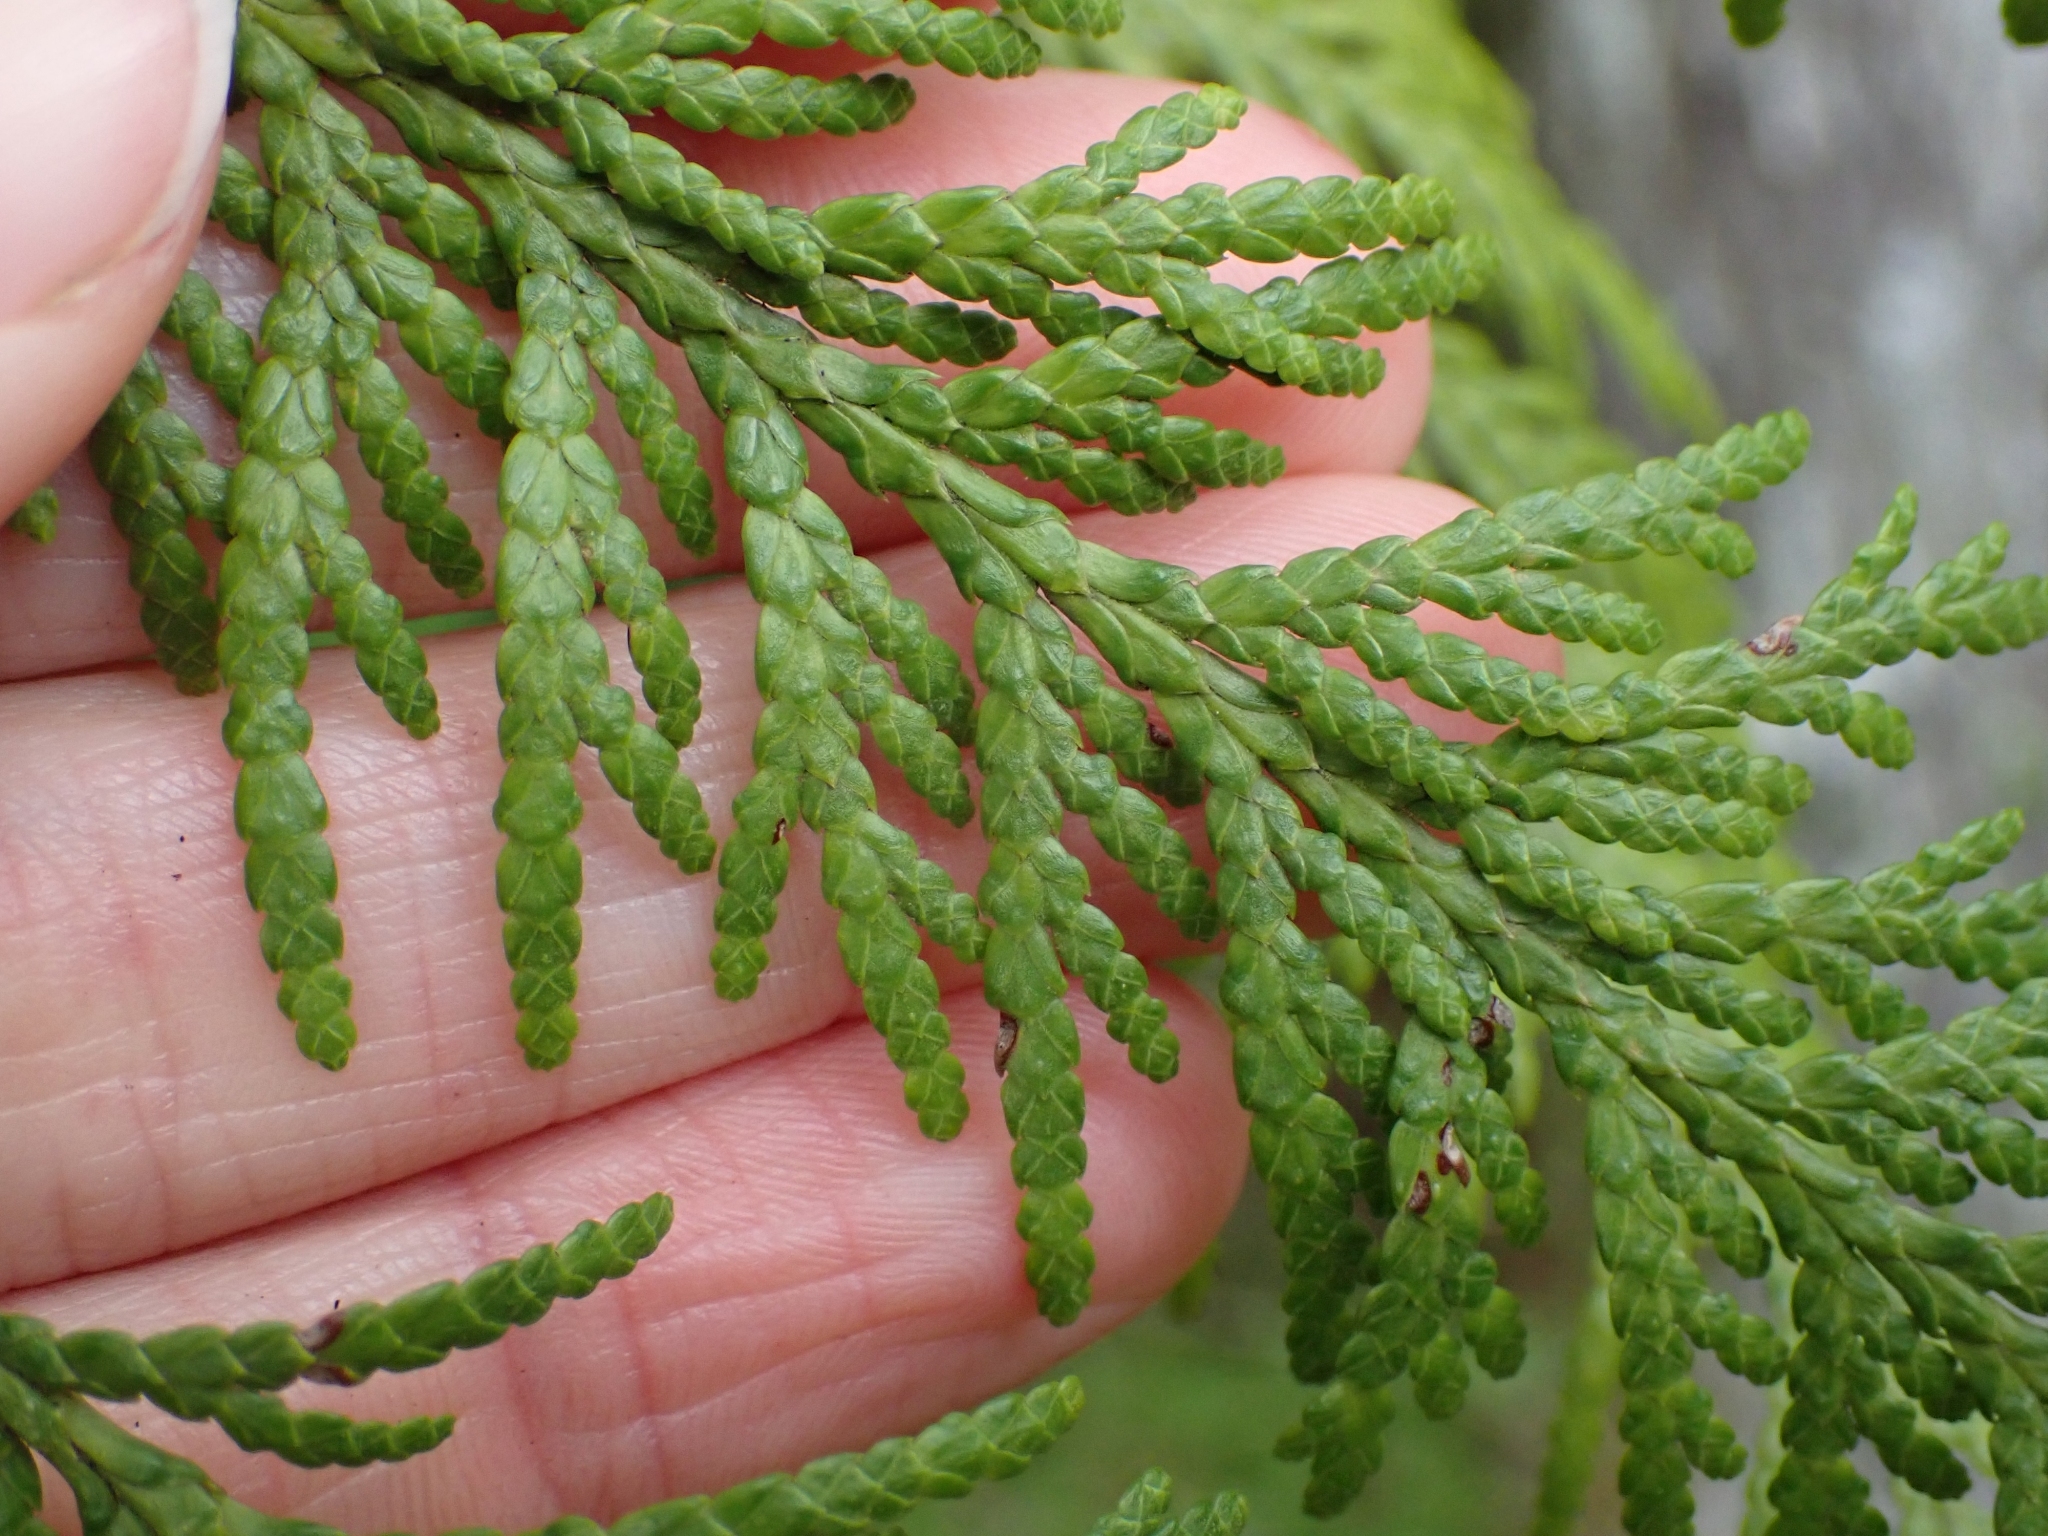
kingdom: Plantae
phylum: Tracheophyta
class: Pinopsida
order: Pinales
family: Cupressaceae
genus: Thuja
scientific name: Thuja plicata
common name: Western red-cedar
